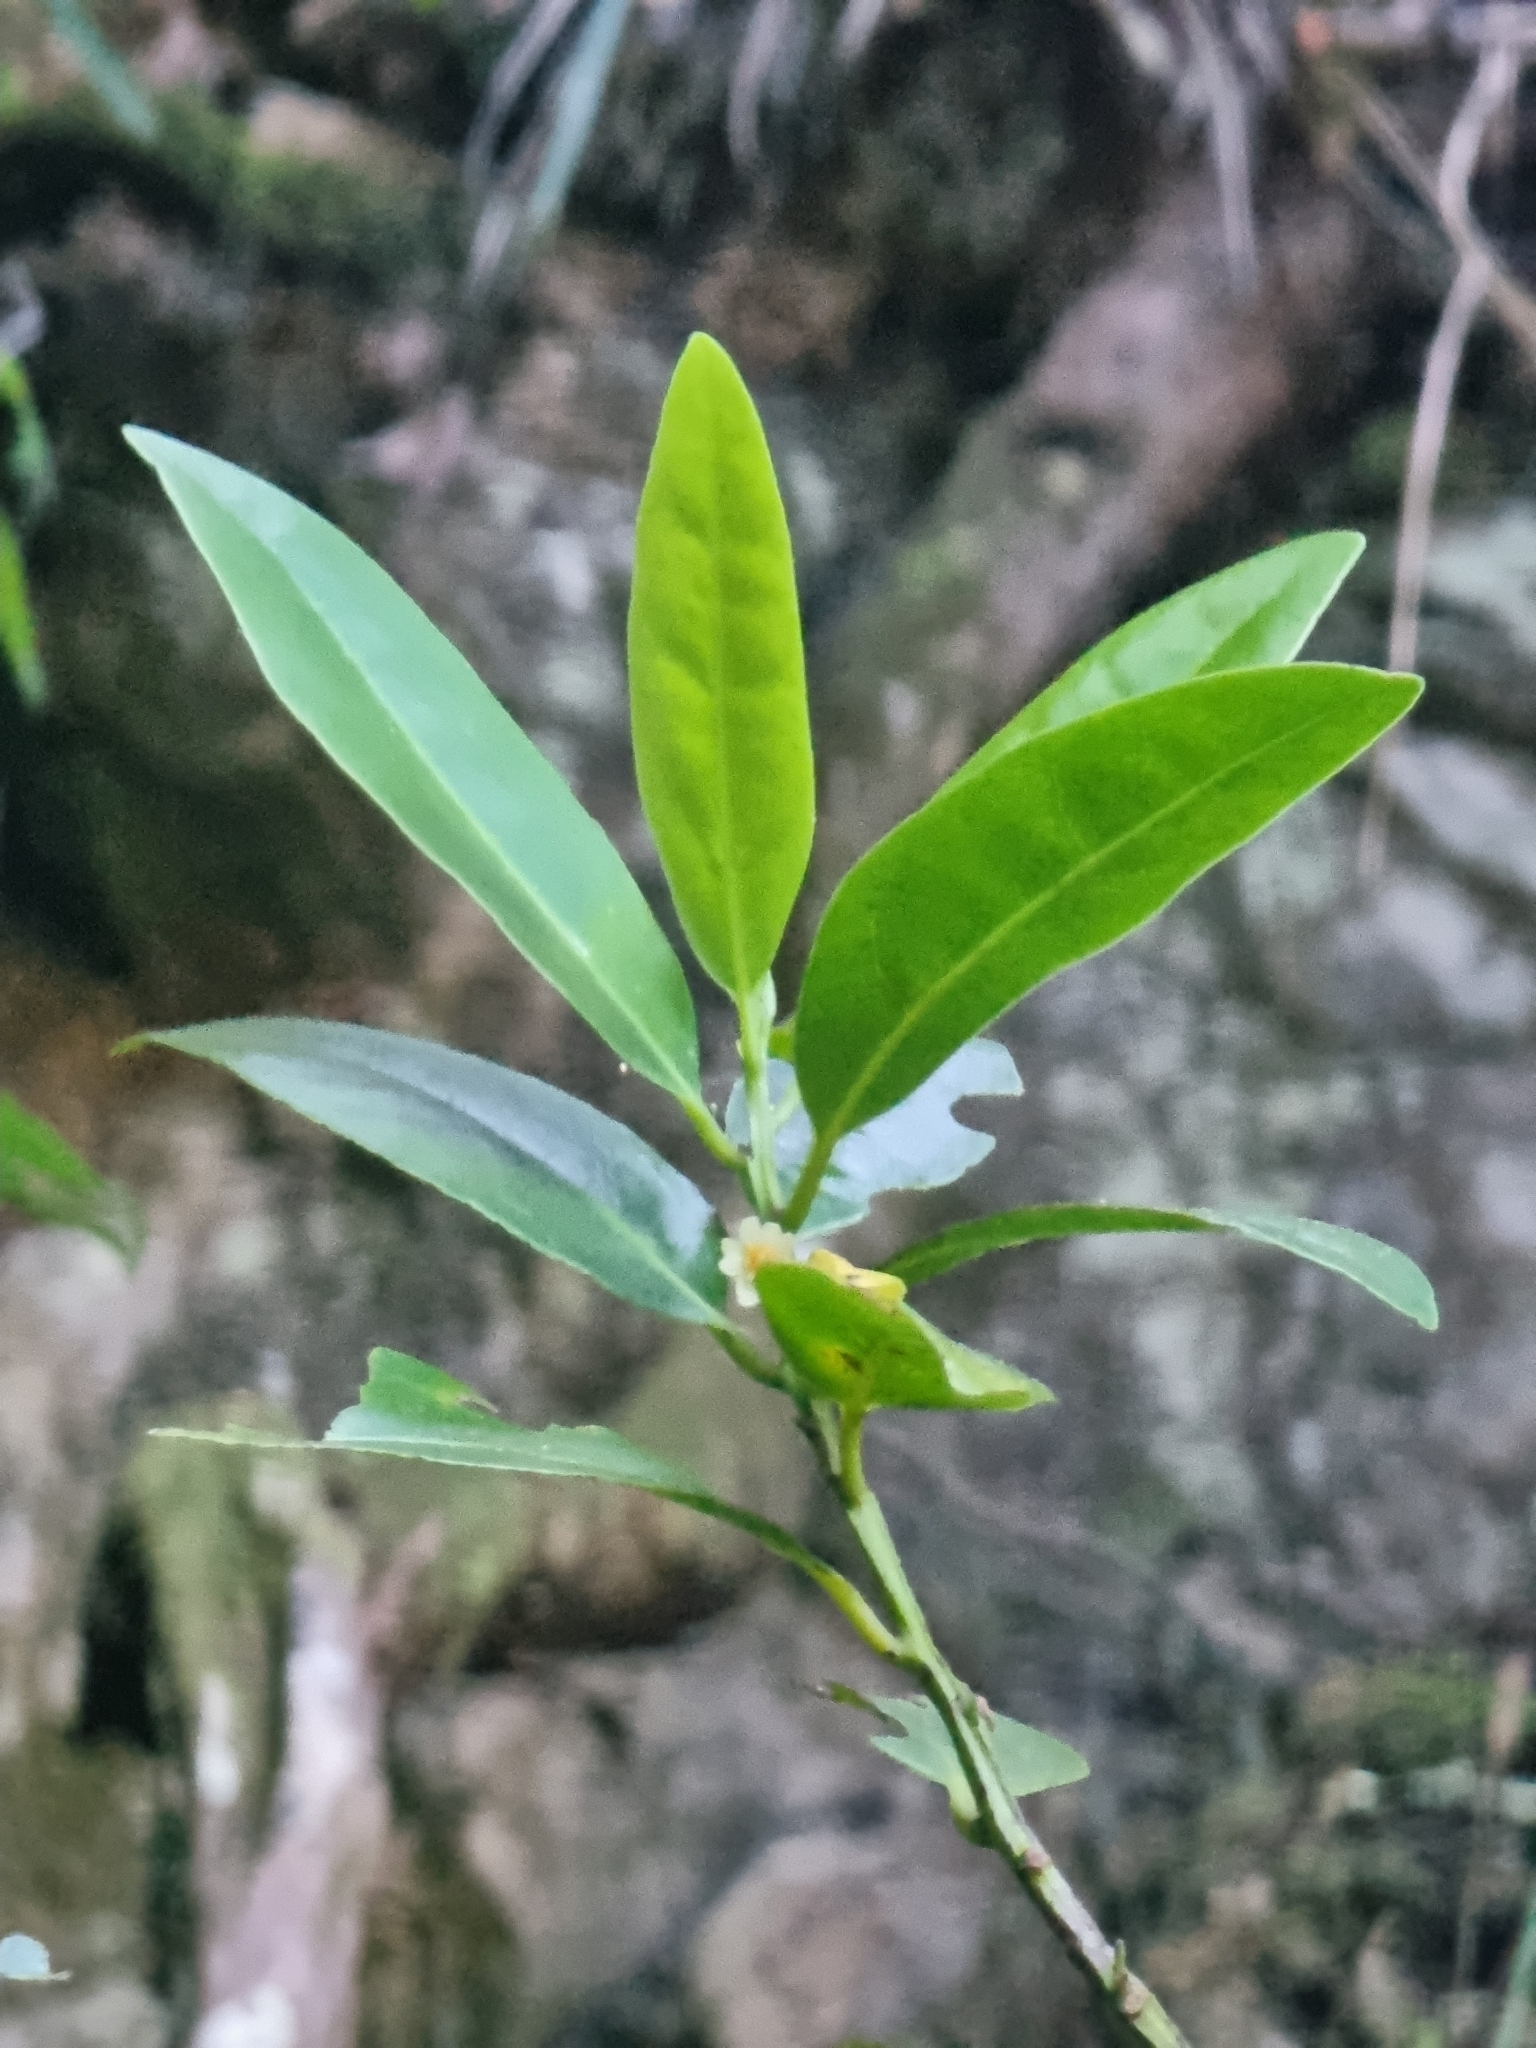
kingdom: Plantae
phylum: Tracheophyta
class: Magnoliopsida
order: Laurales
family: Lauraceae
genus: Mespilodaphne
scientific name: Mespilodaphne foetens
